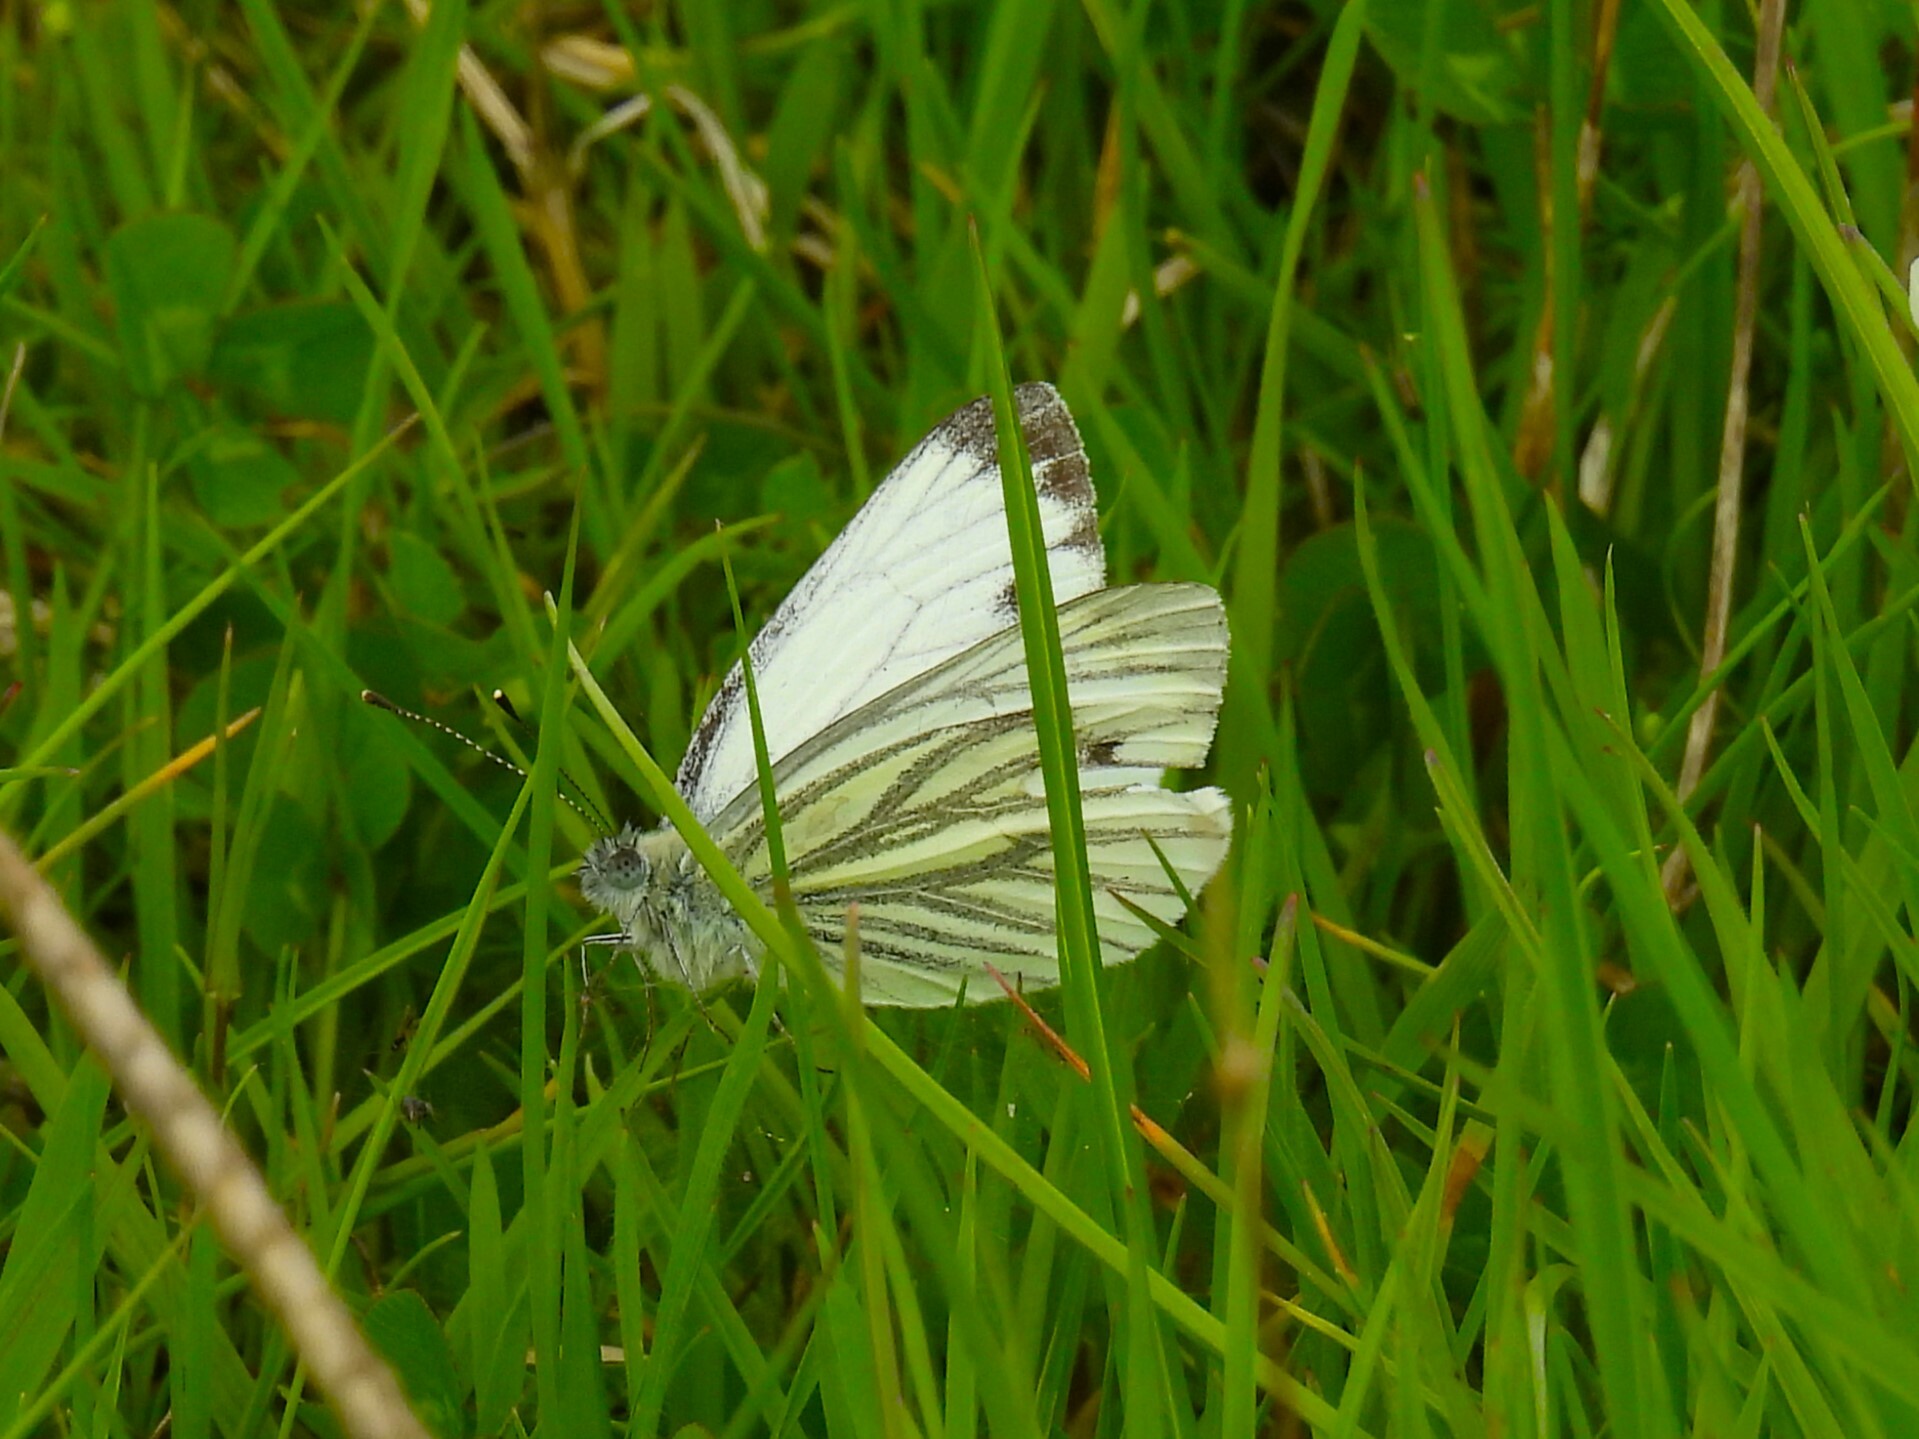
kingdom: Animalia
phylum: Arthropoda
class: Insecta
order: Lepidoptera
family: Pieridae
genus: Pieris
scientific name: Pieris napi
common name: Green-veined white
